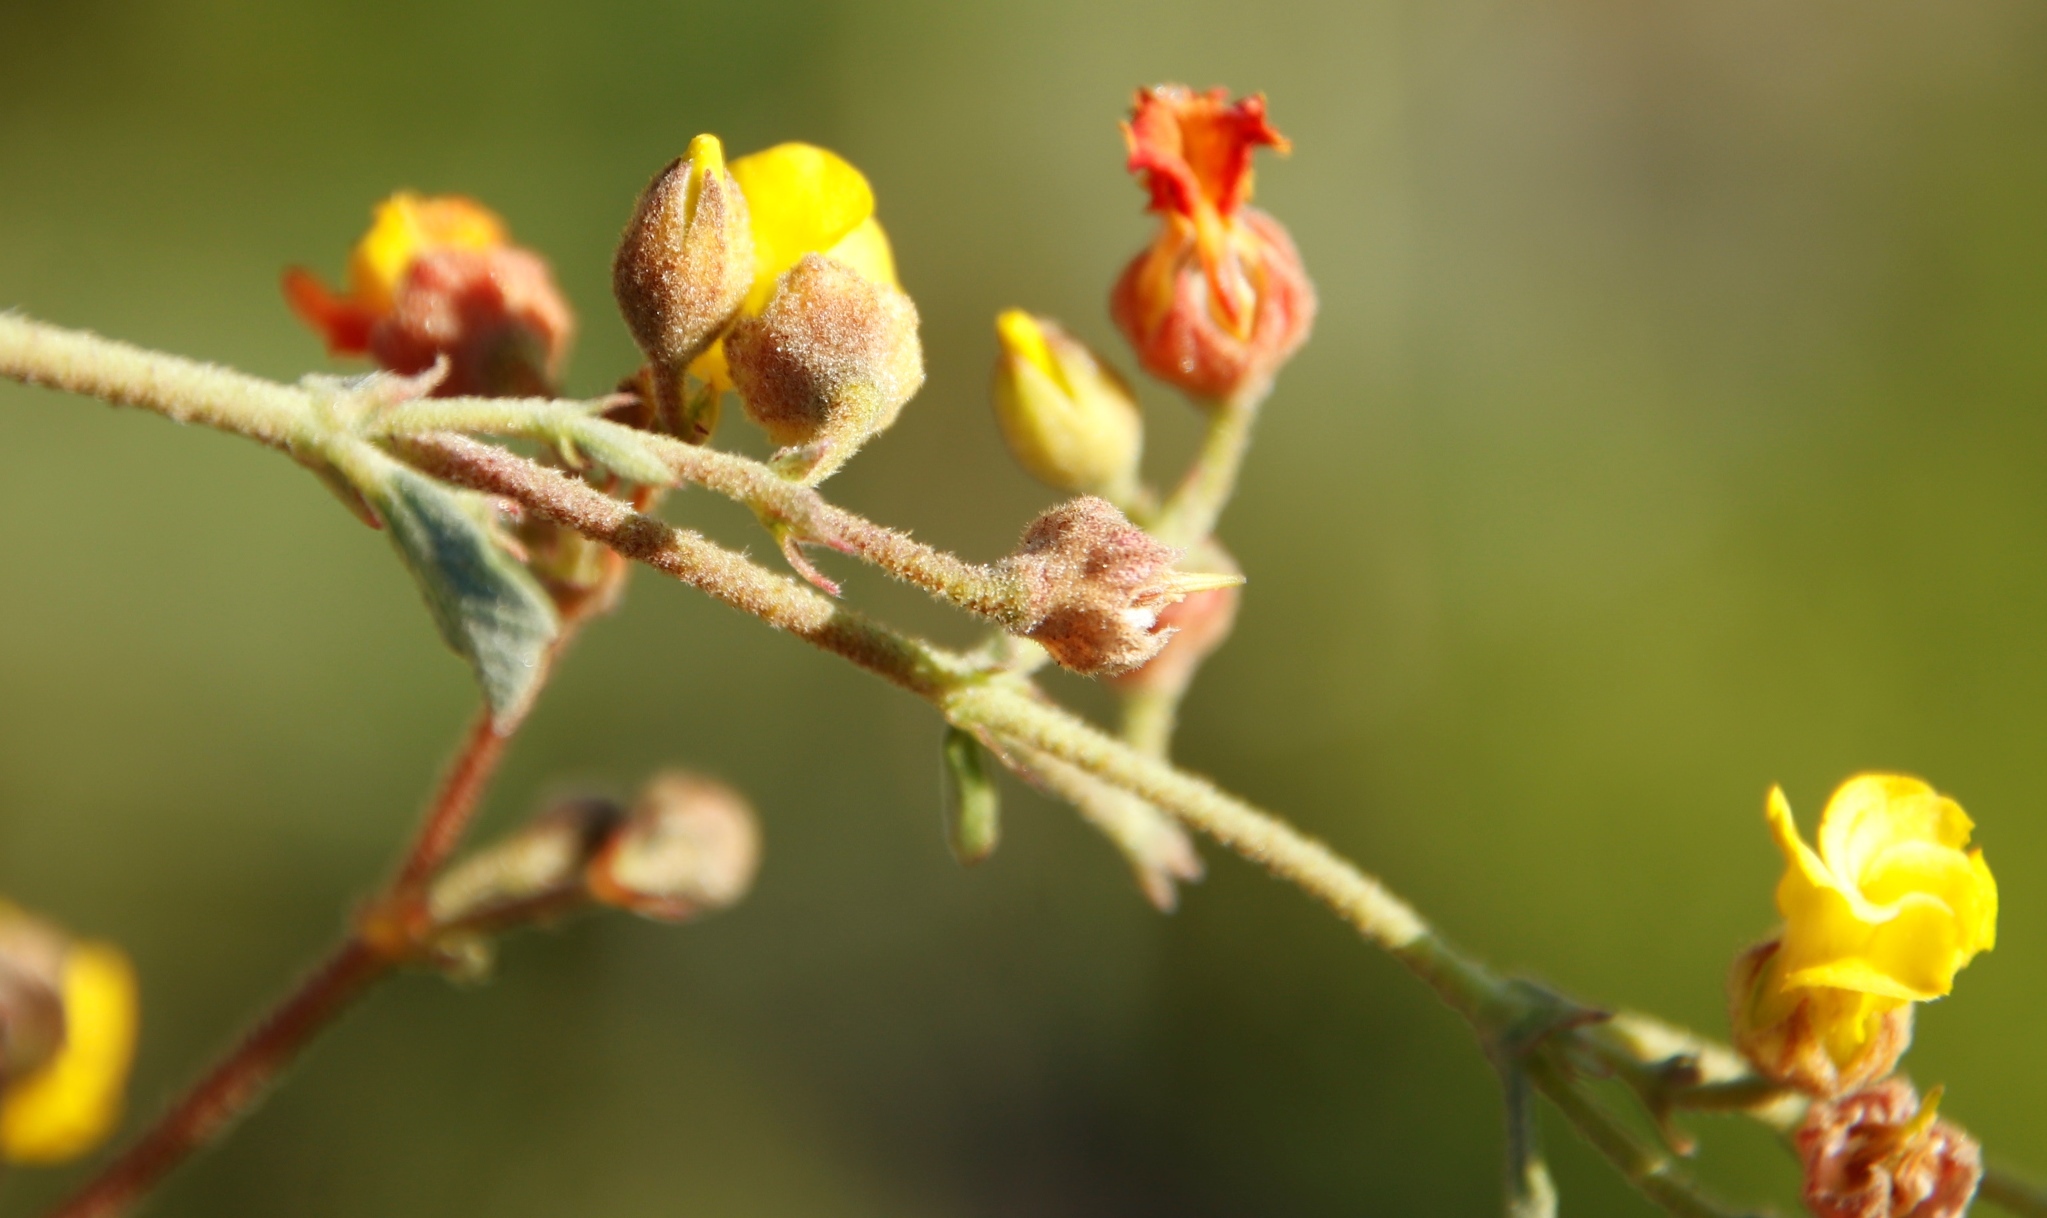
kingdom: Plantae
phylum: Tracheophyta
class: Magnoliopsida
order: Malvales
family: Malvaceae
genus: Hermannia
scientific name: Hermannia multiflora
